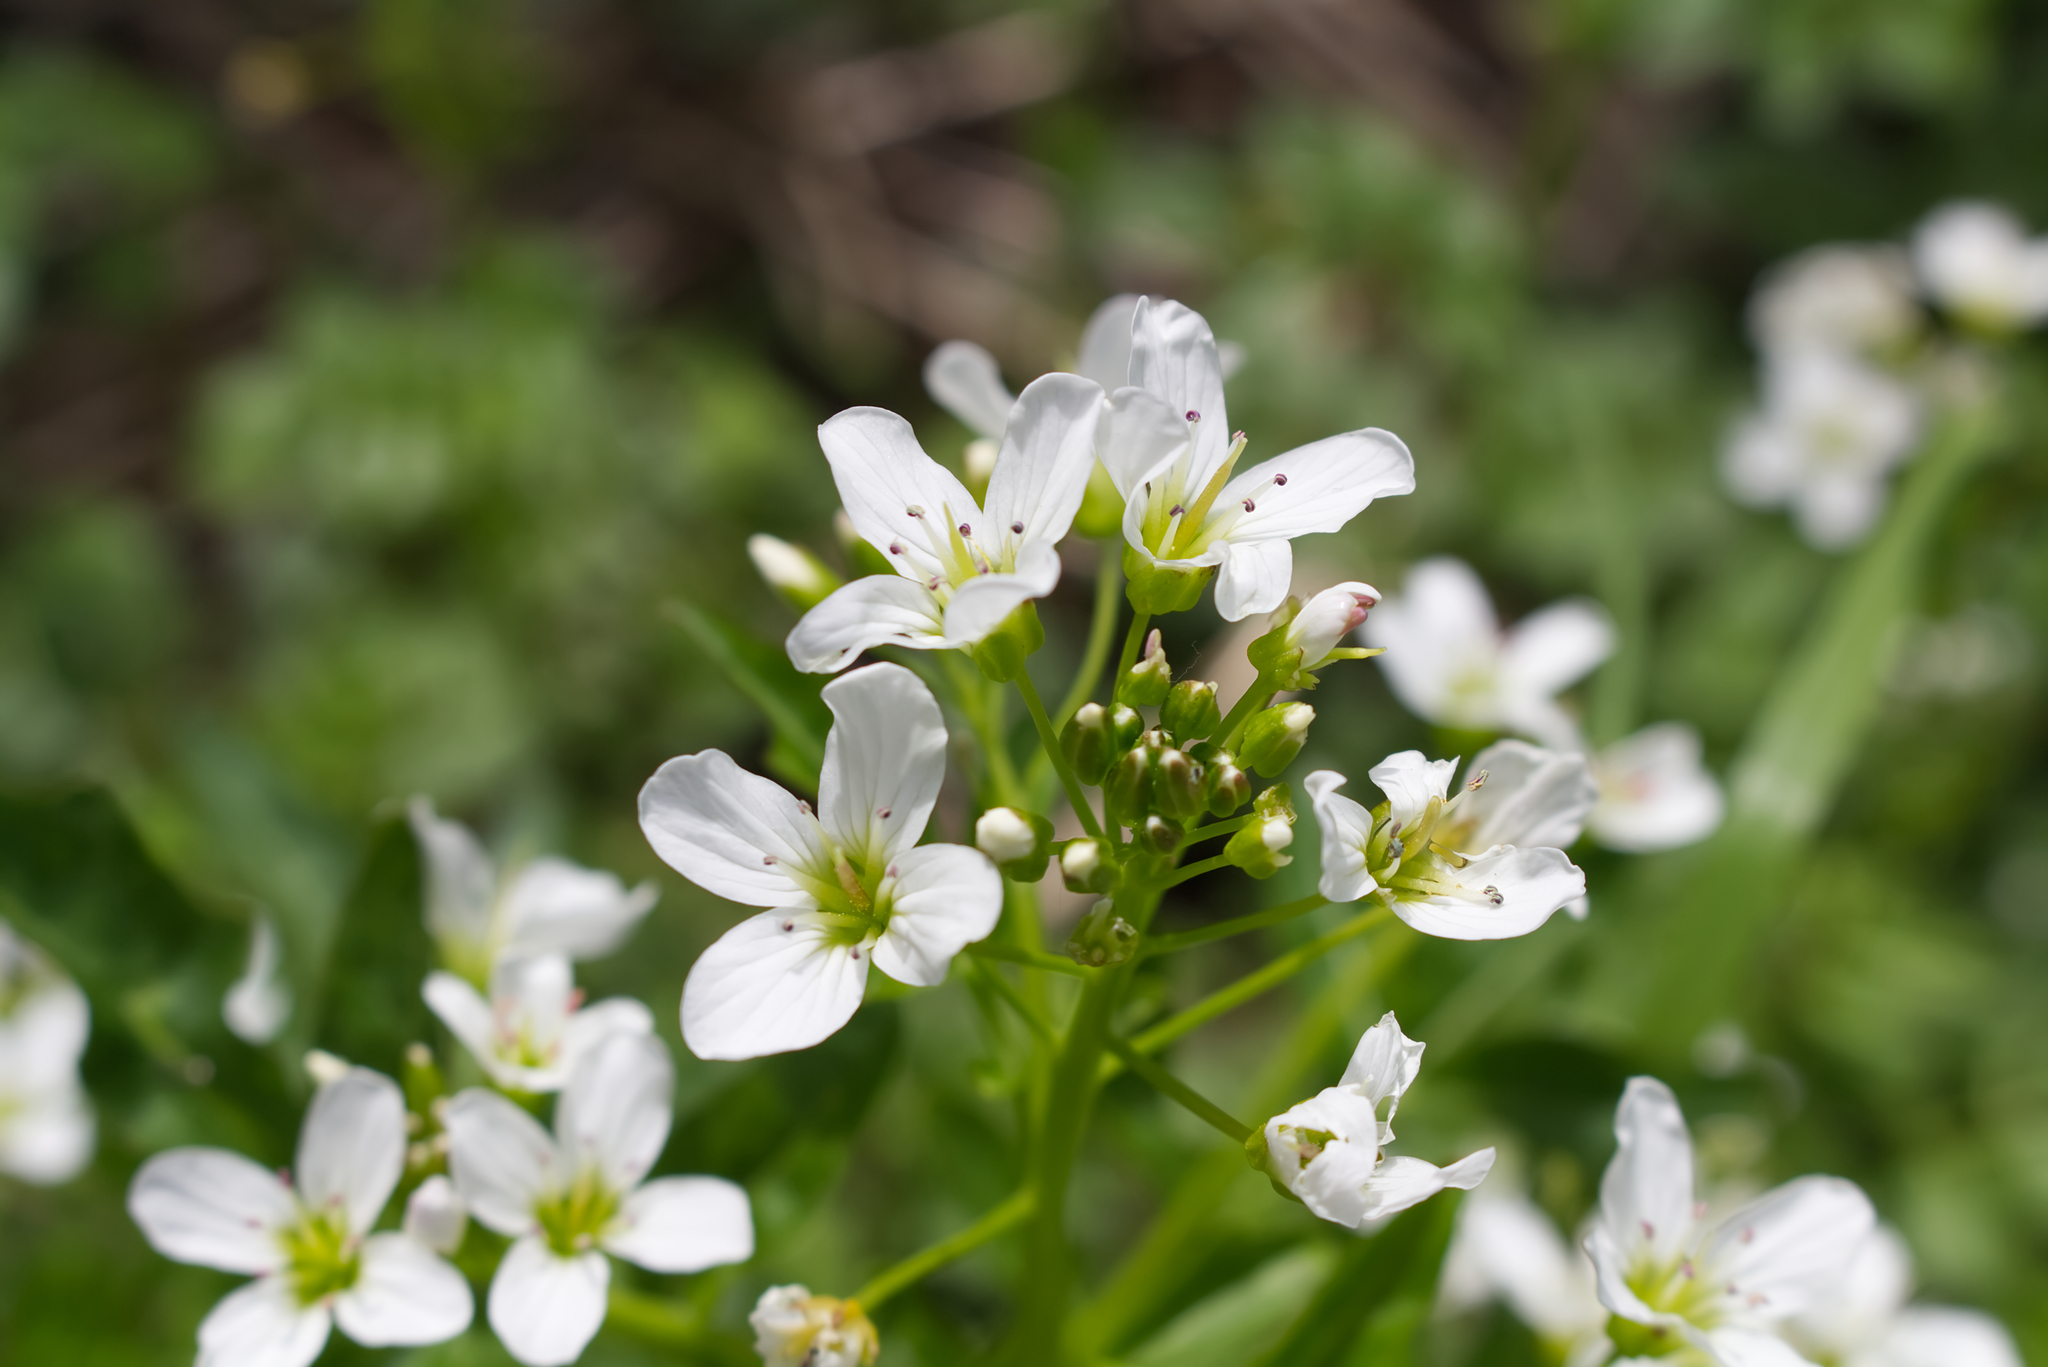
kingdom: Plantae
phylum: Tracheophyta
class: Magnoliopsida
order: Brassicales
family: Brassicaceae
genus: Cardamine
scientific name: Cardamine amara
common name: Large bitter-cress
